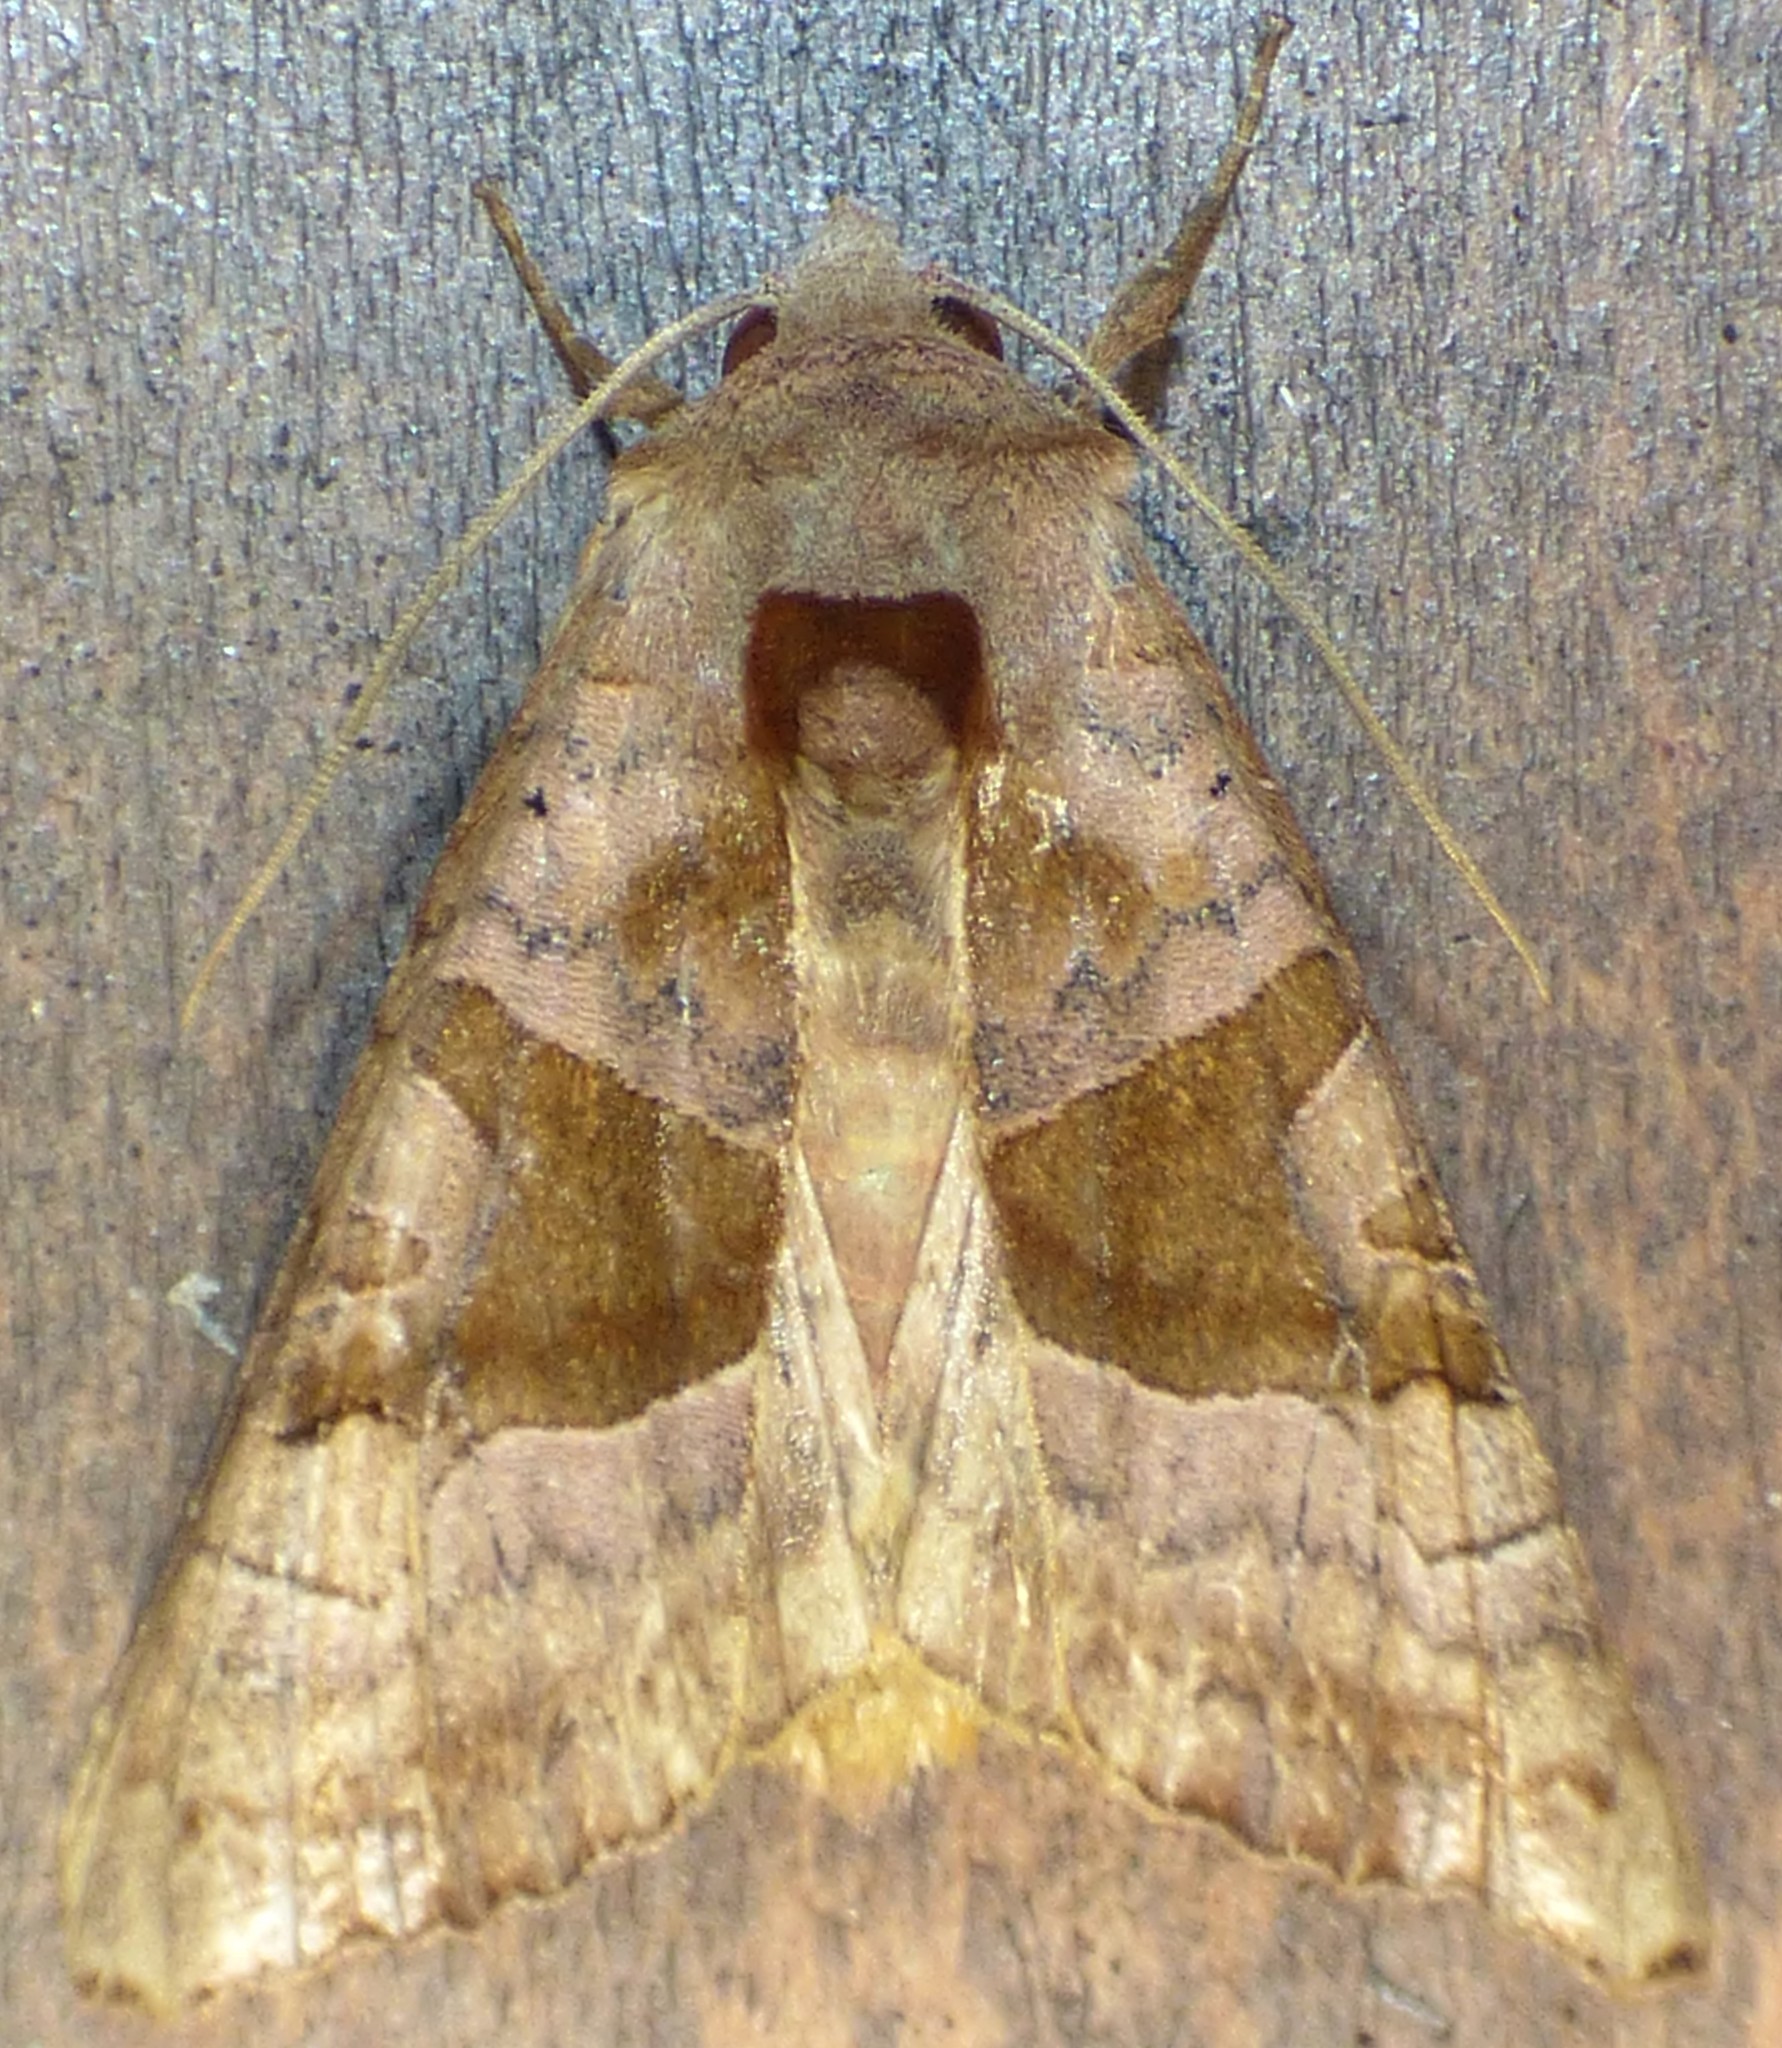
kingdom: Animalia
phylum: Arthropoda
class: Insecta
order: Lepidoptera
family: Noctuidae
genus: Phlogophora
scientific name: Phlogophora periculosa
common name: Brown angle shades
